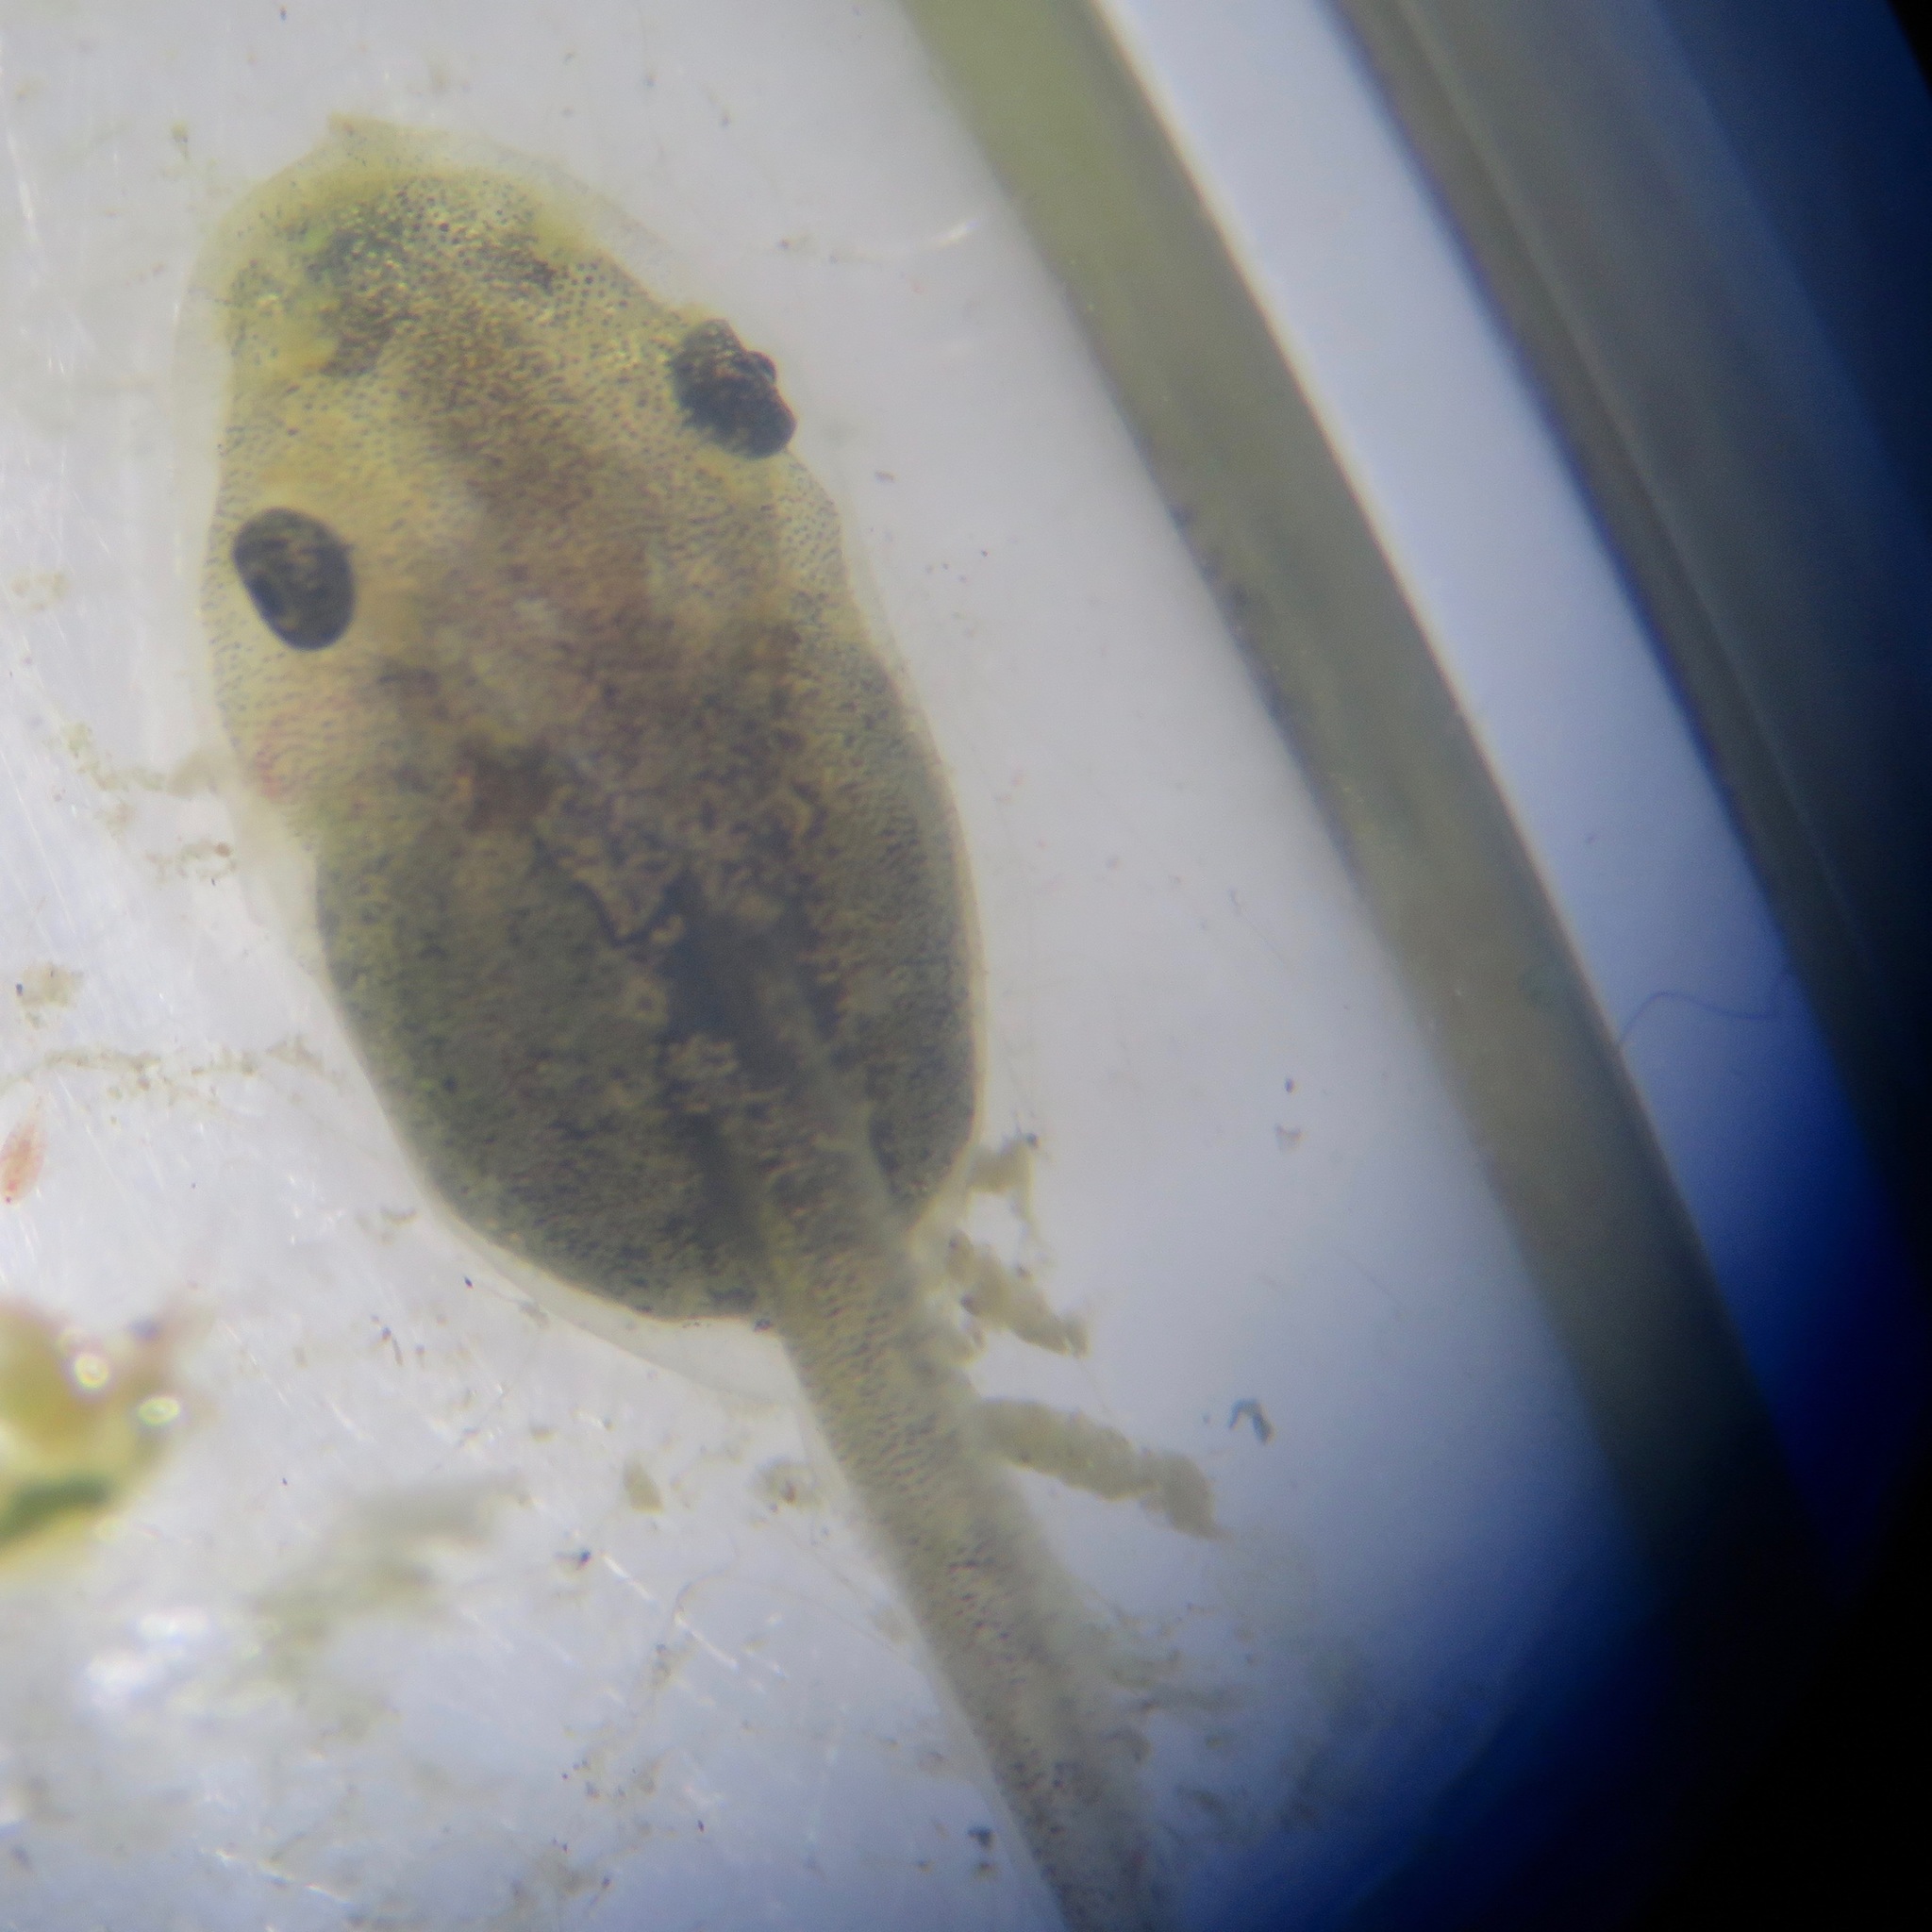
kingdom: Animalia
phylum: Chordata
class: Amphibia
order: Anura
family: Hylidae
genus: Pseudacris
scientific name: Pseudacris regilla
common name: Pacific chorus frog
